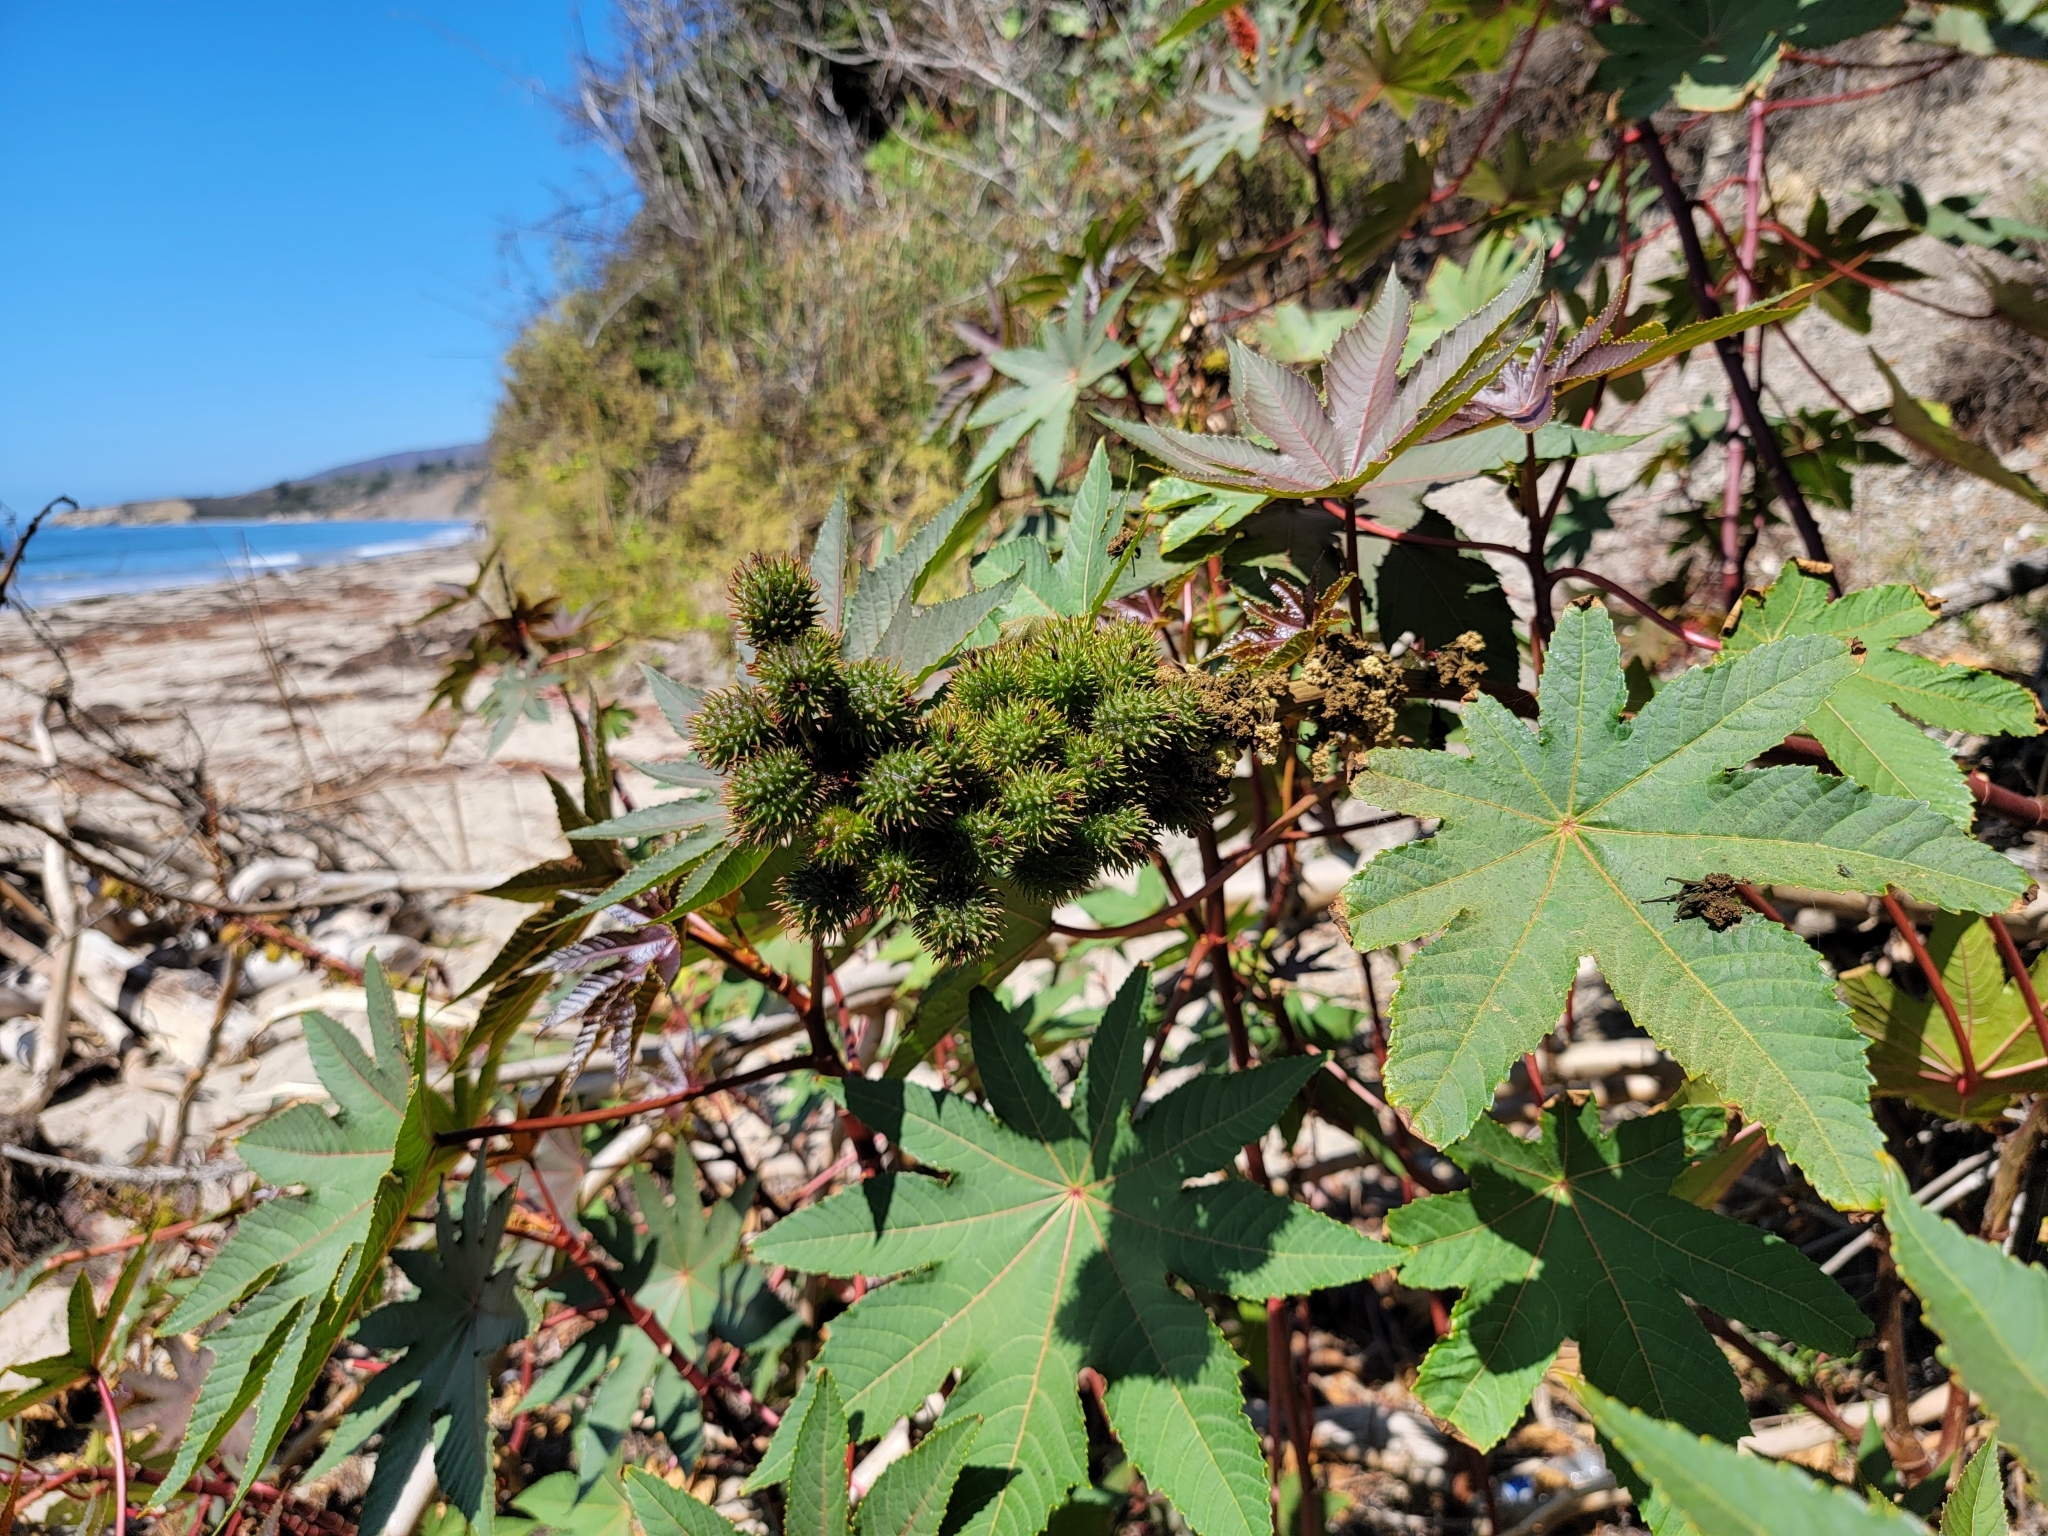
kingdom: Plantae
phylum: Tracheophyta
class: Magnoliopsida
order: Malpighiales
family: Euphorbiaceae
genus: Ricinus
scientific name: Ricinus communis
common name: Castor-oil-plant
